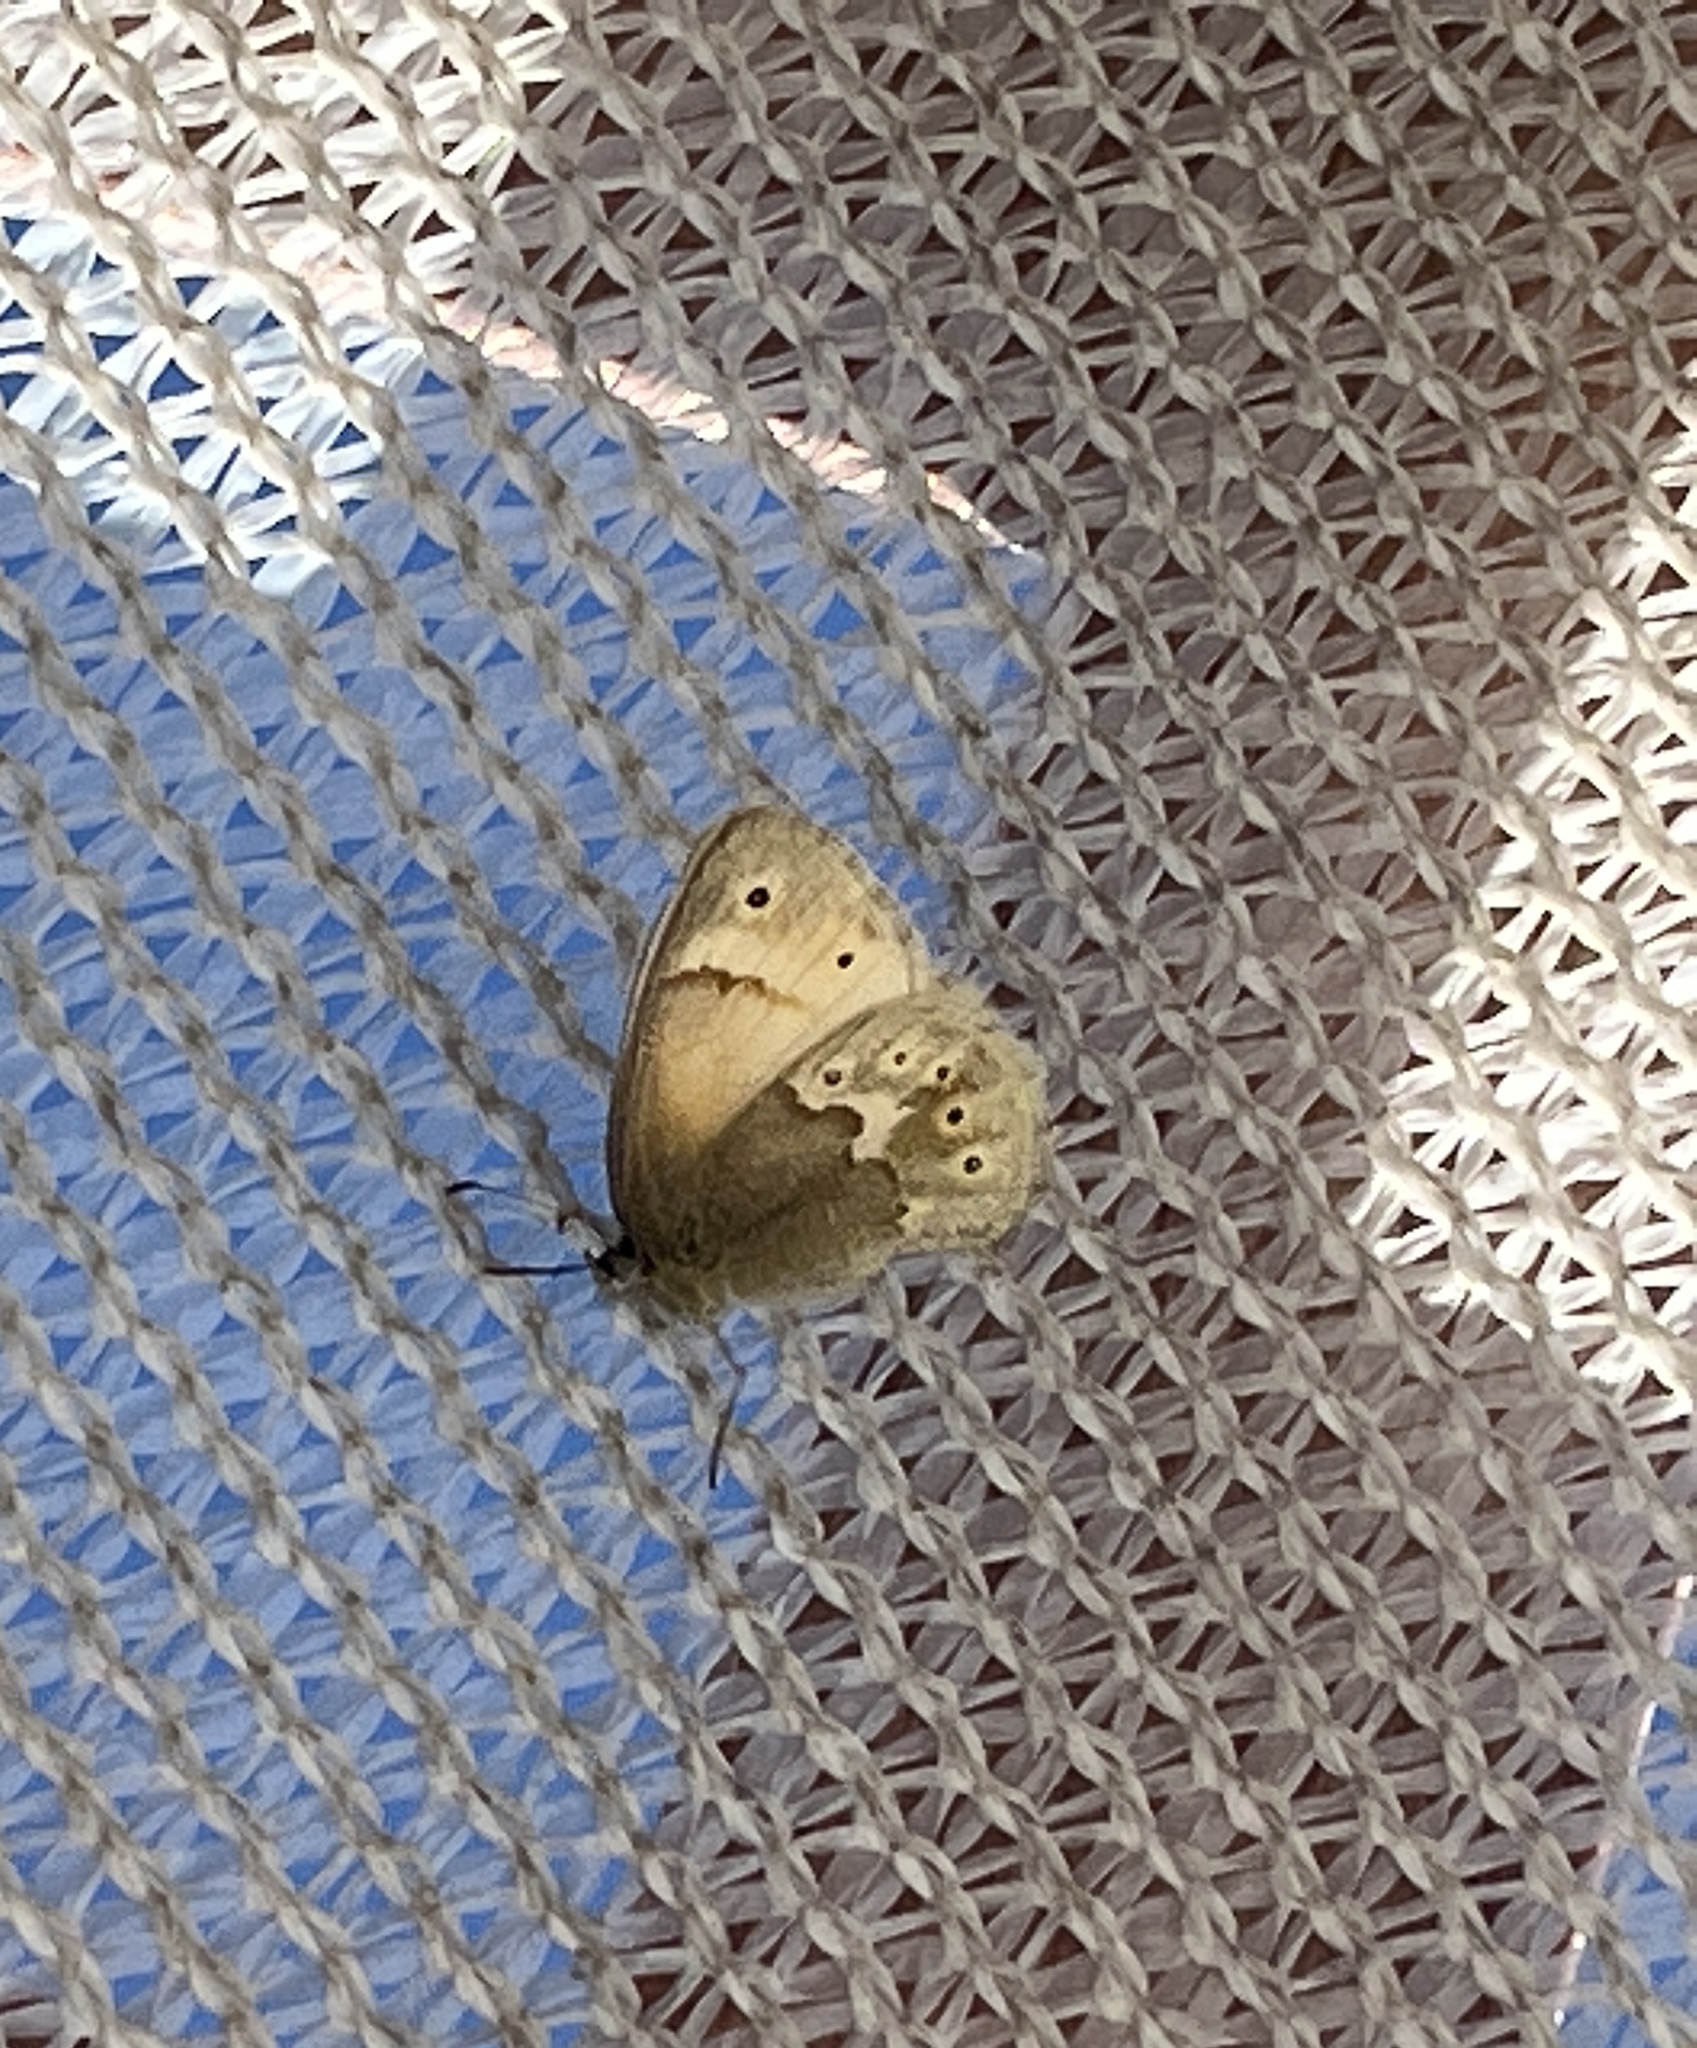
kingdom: Animalia
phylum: Arthropoda
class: Insecta
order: Lepidoptera
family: Nymphalidae
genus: Coenonympha
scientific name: Coenonympha california
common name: Common ringlet
